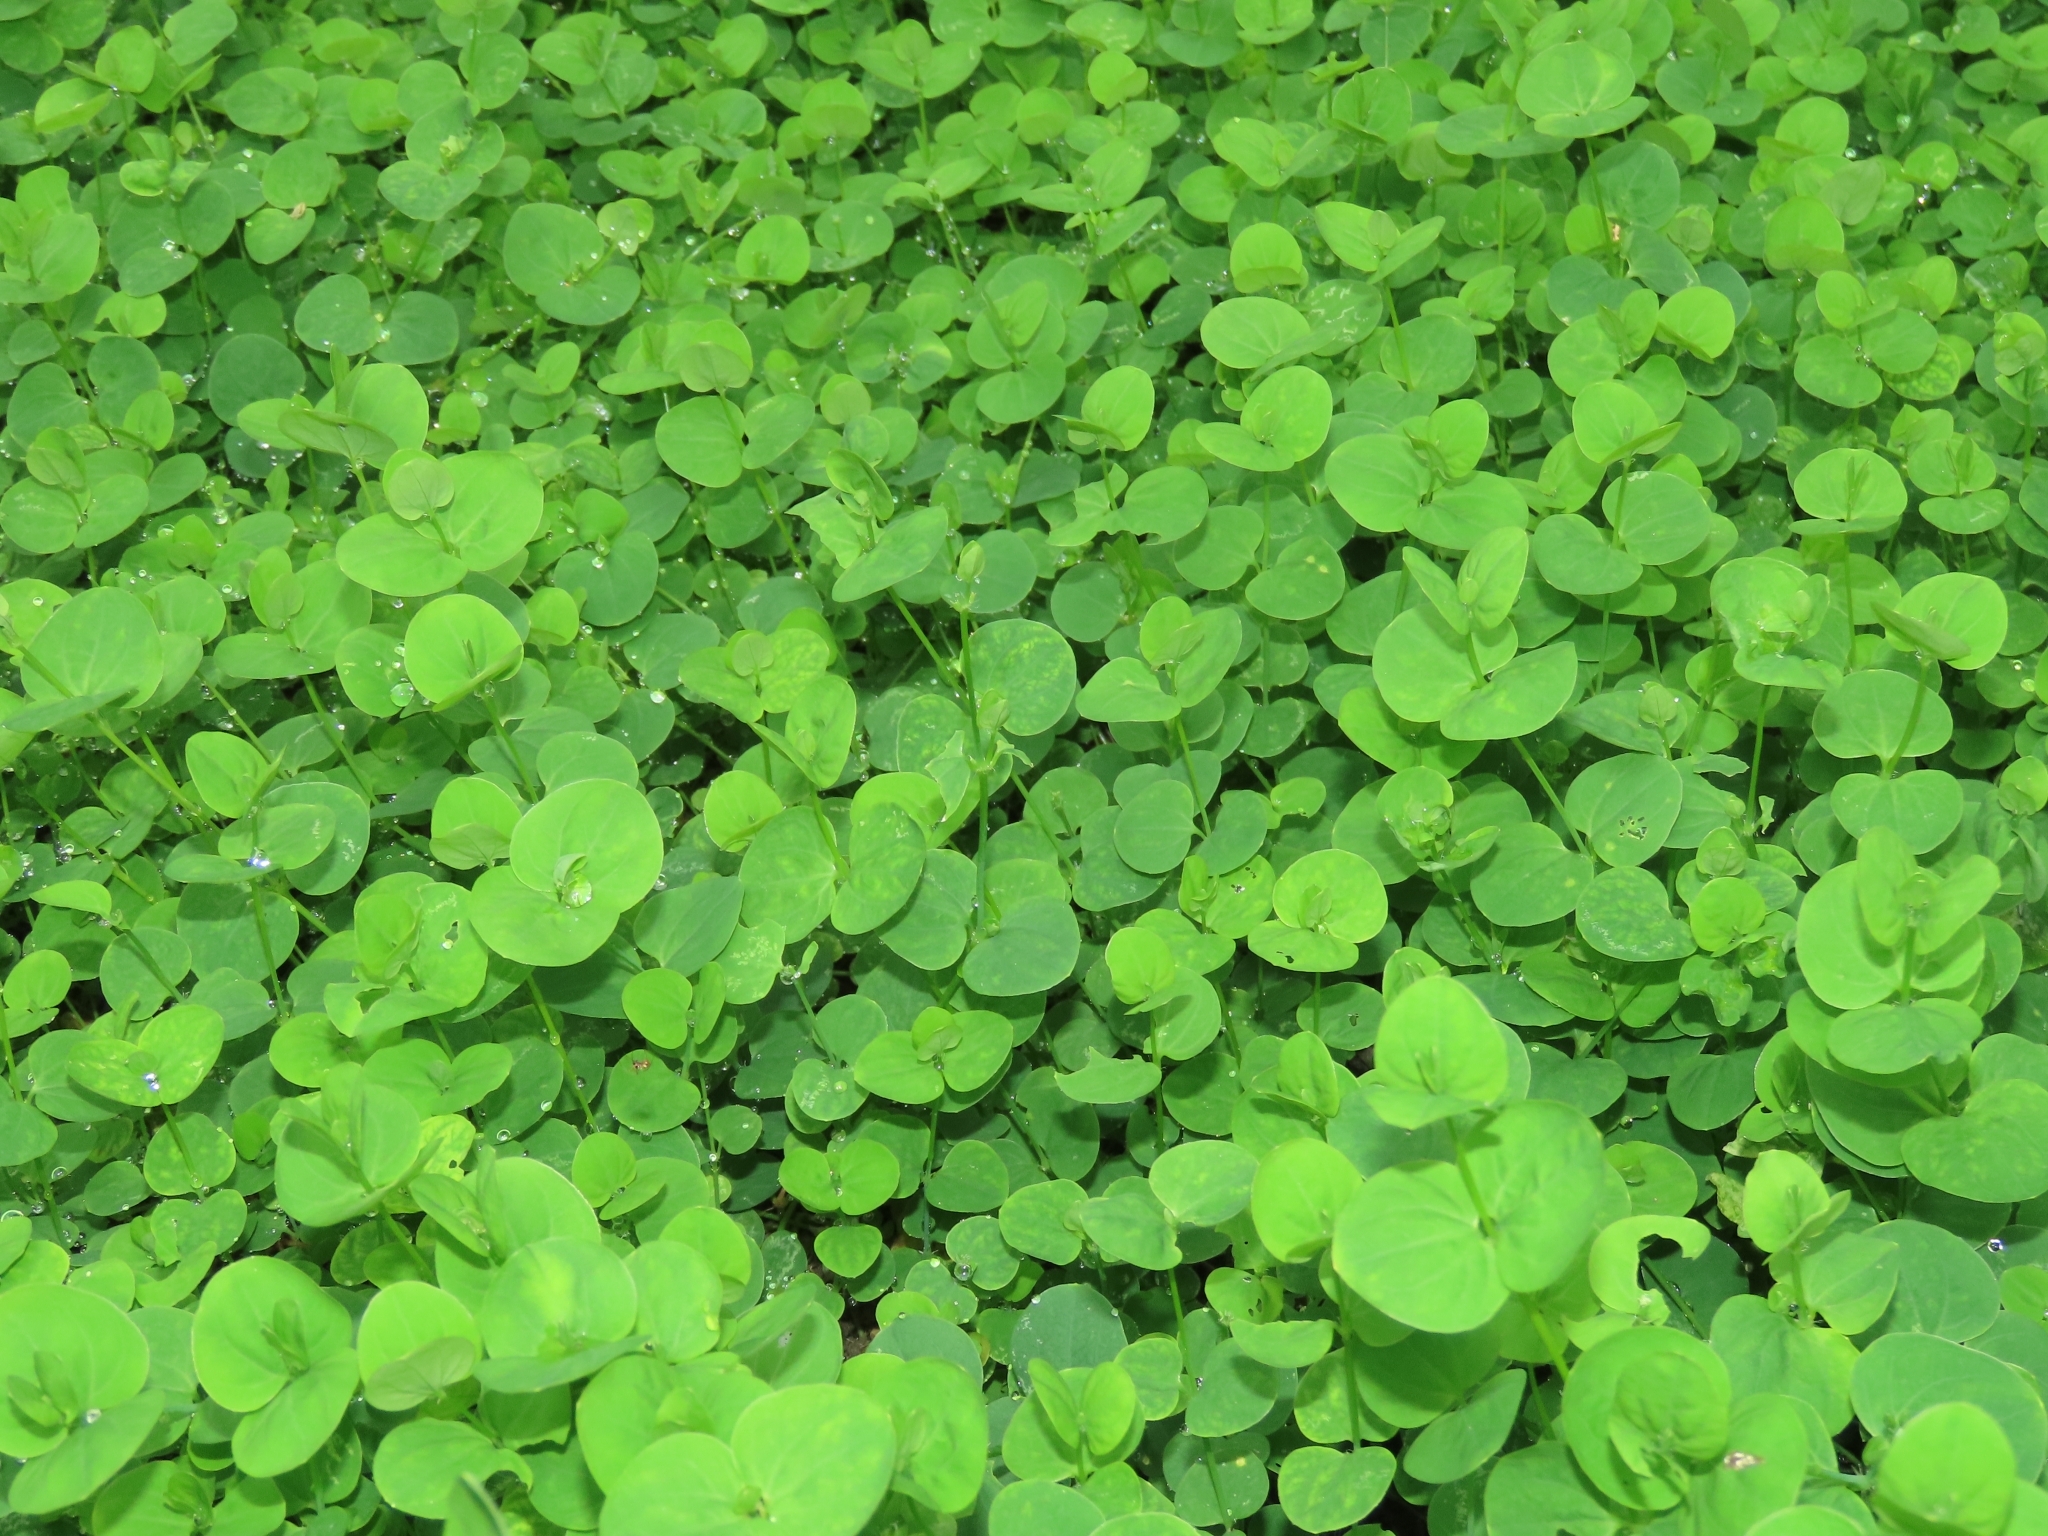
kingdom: Plantae
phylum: Tracheophyta
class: Magnoliopsida
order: Caryophyllales
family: Caryophyllaceae
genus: Drymaria
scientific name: Drymaria cordata
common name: Whitesnow
